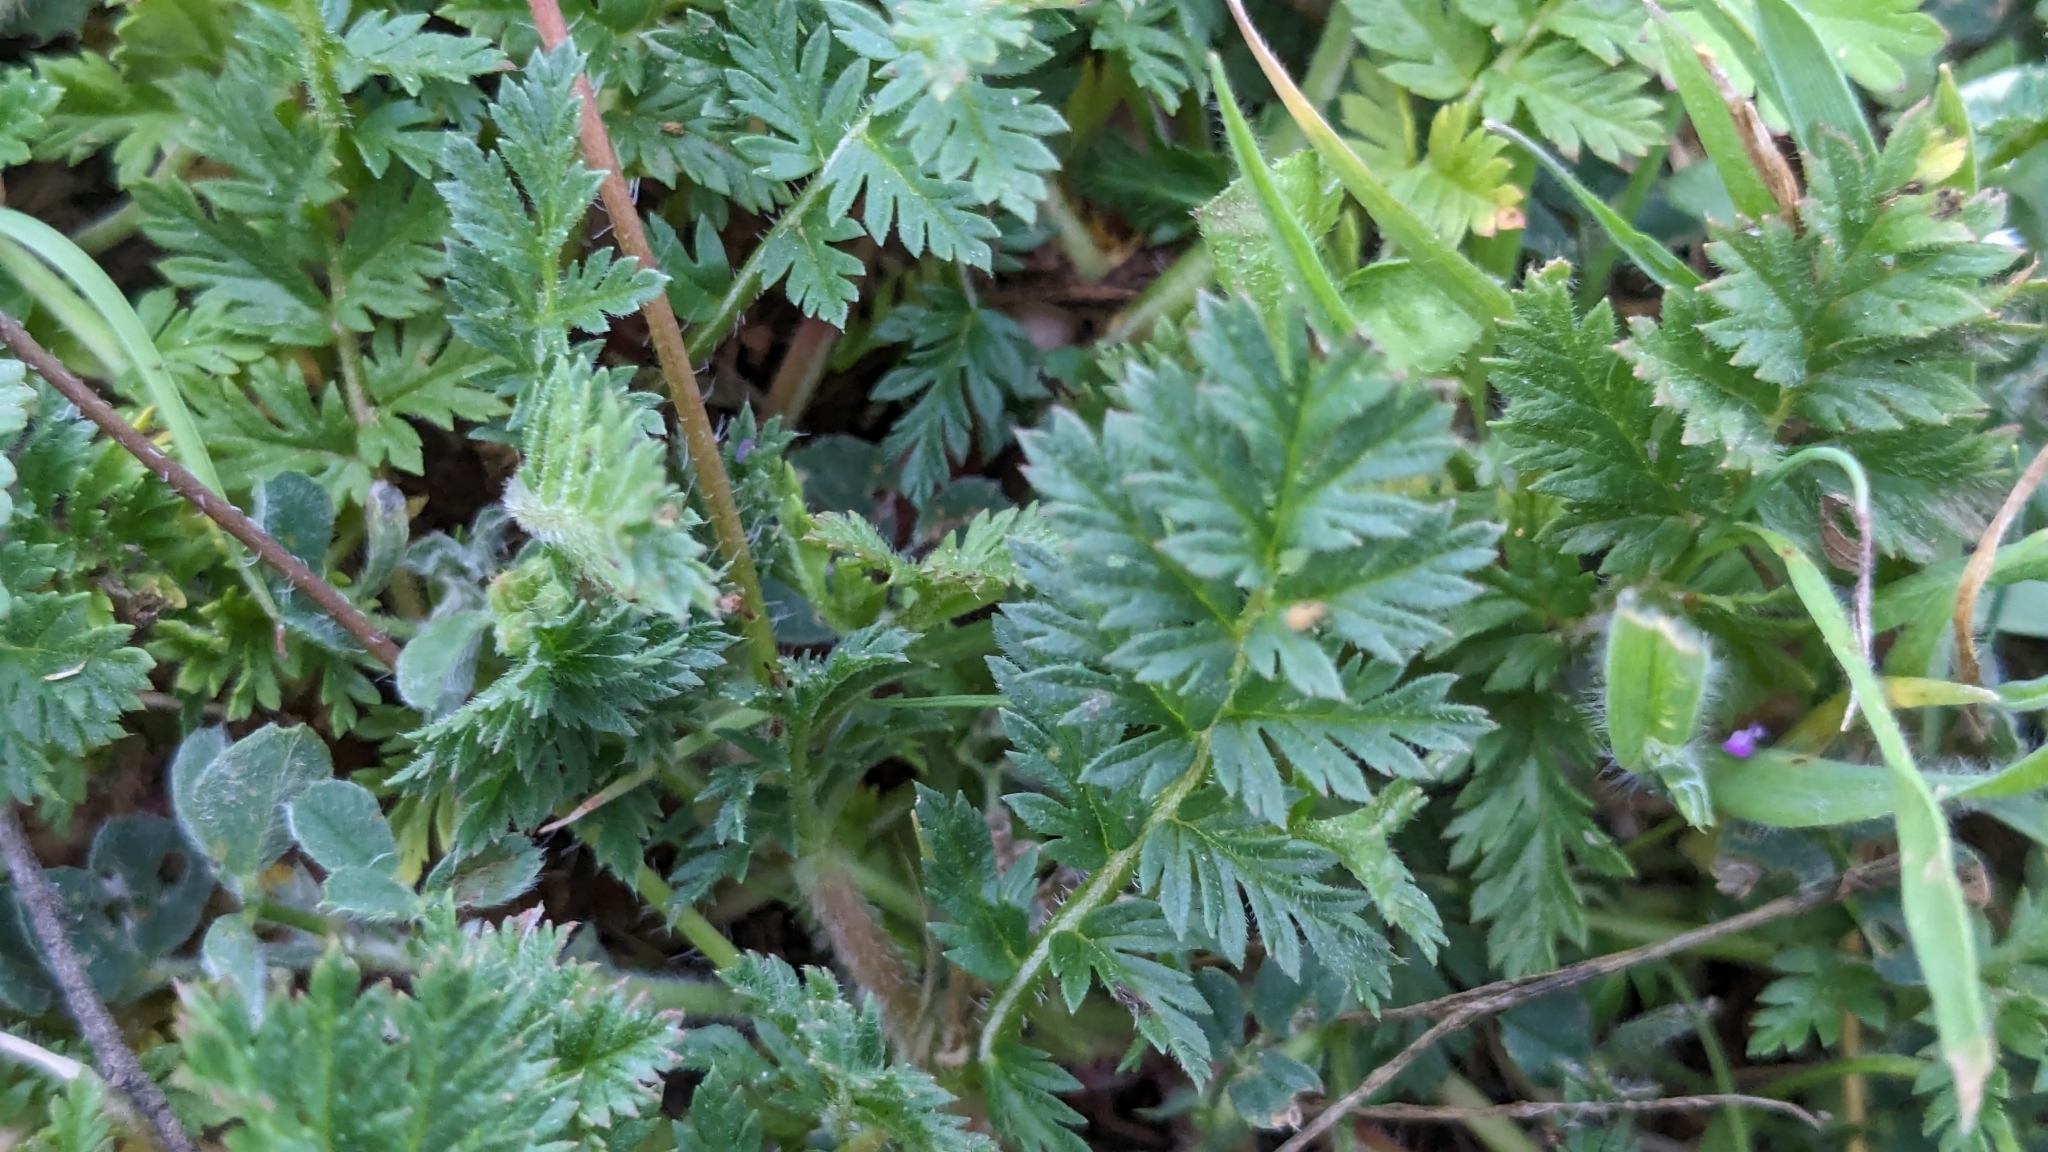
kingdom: Plantae
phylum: Tracheophyta
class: Magnoliopsida
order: Geraniales
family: Geraniaceae
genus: Erodium
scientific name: Erodium cicutarium
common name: Common stork's-bill
